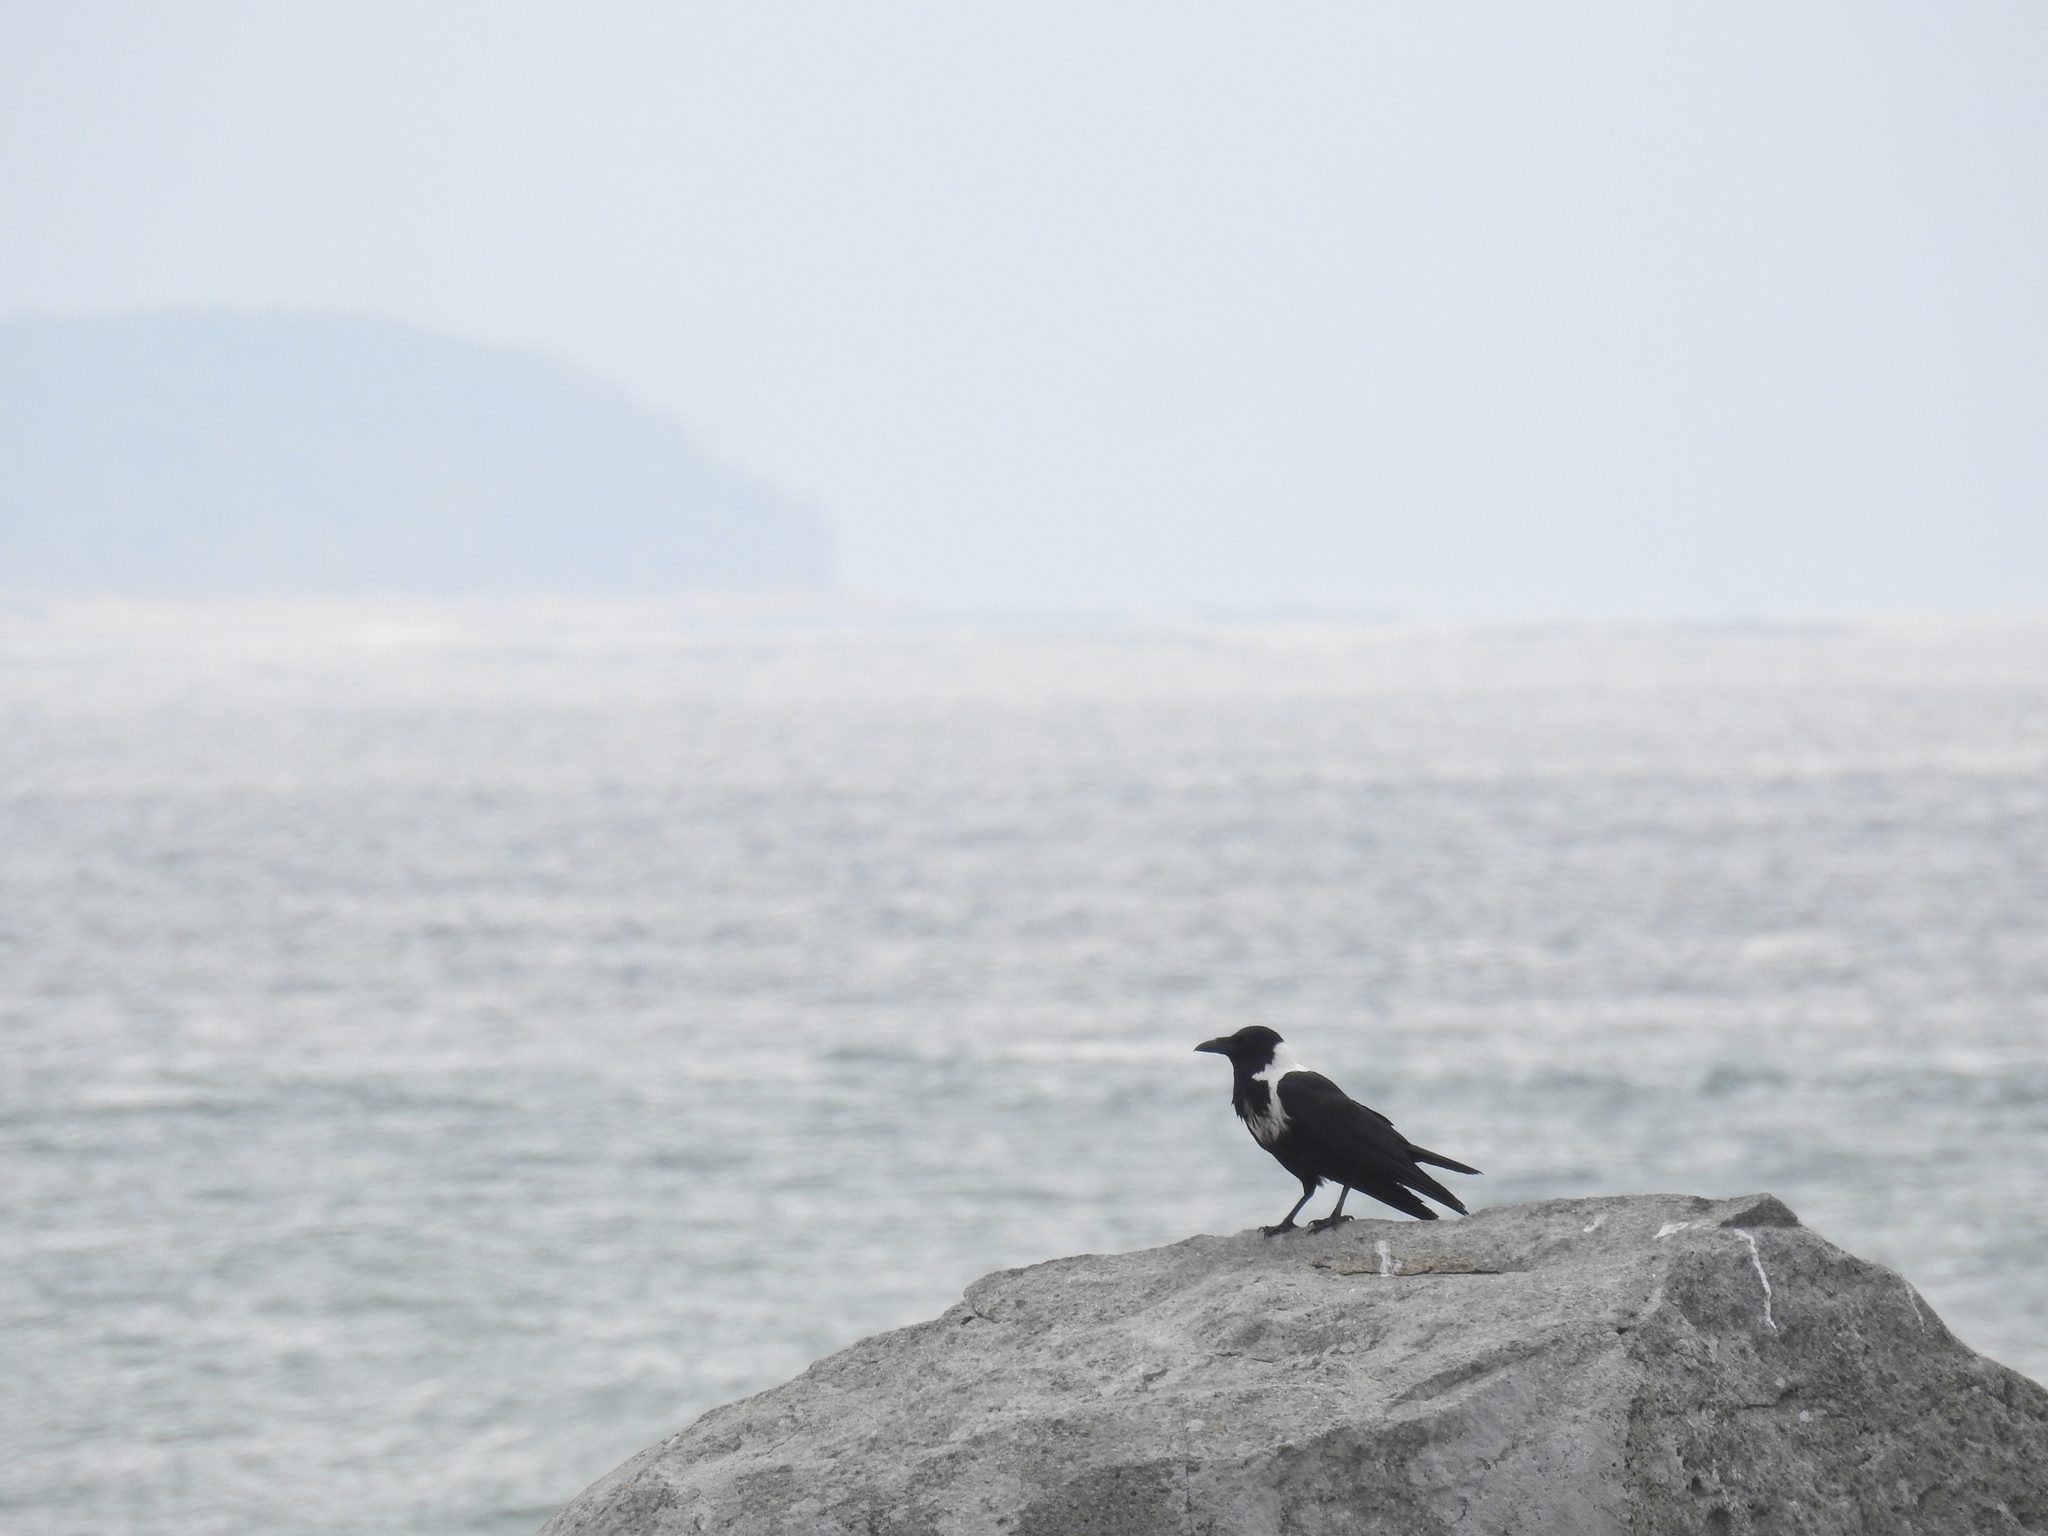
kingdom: Animalia
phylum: Chordata
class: Aves
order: Passeriformes
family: Corvidae
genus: Corvus
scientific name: Corvus pectoralis
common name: Collared crow
